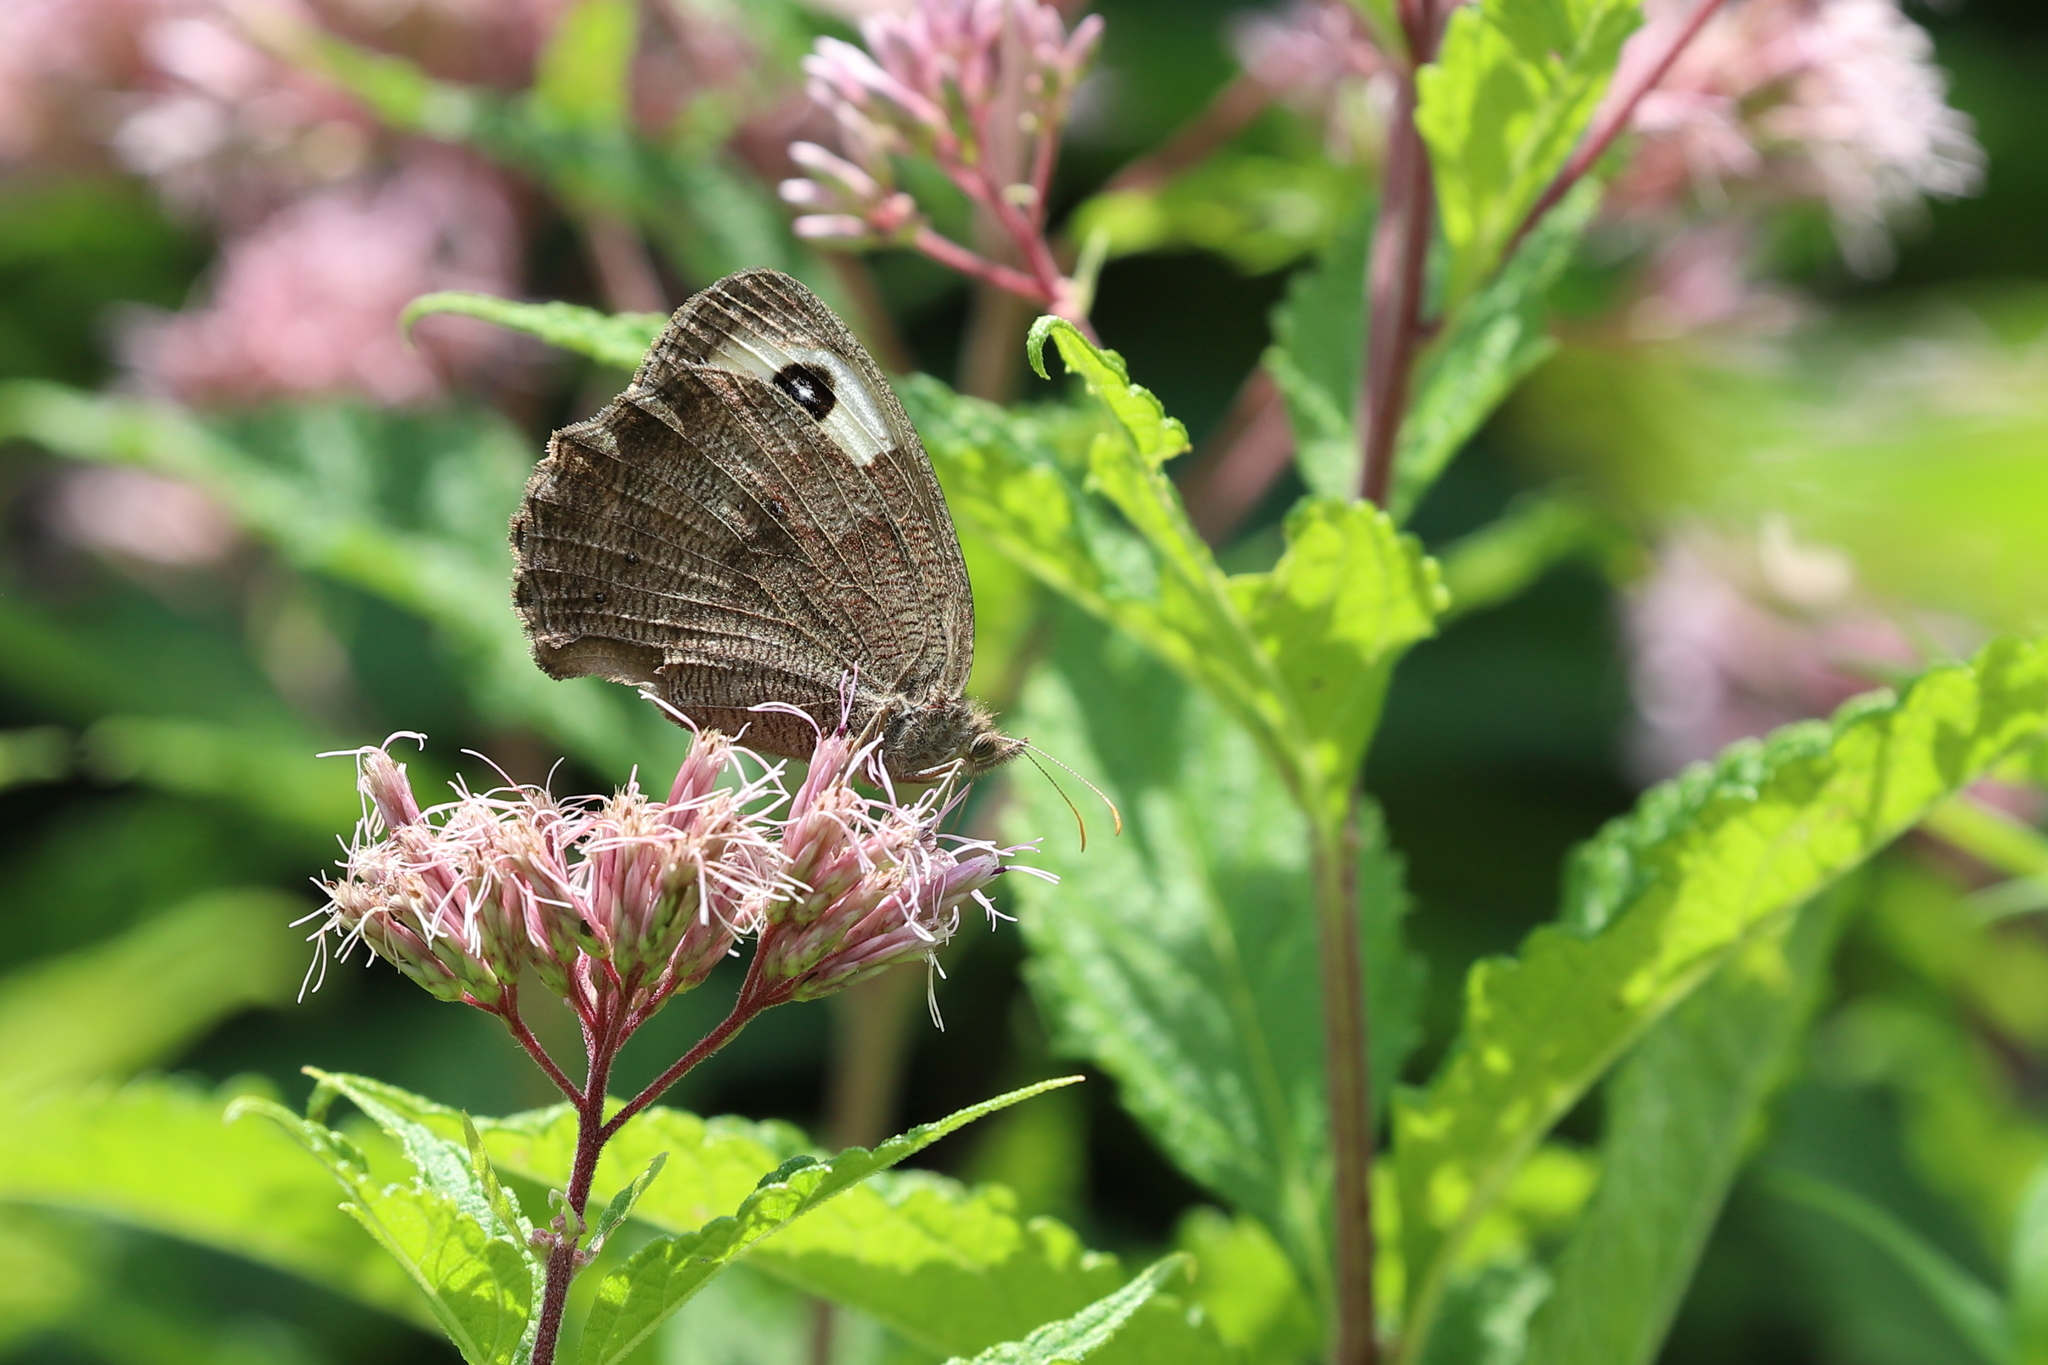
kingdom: Animalia
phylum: Arthropoda
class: Insecta
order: Lepidoptera
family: Nymphalidae
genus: Cercyonis
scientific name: Cercyonis pegala
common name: Common wood-nymph
